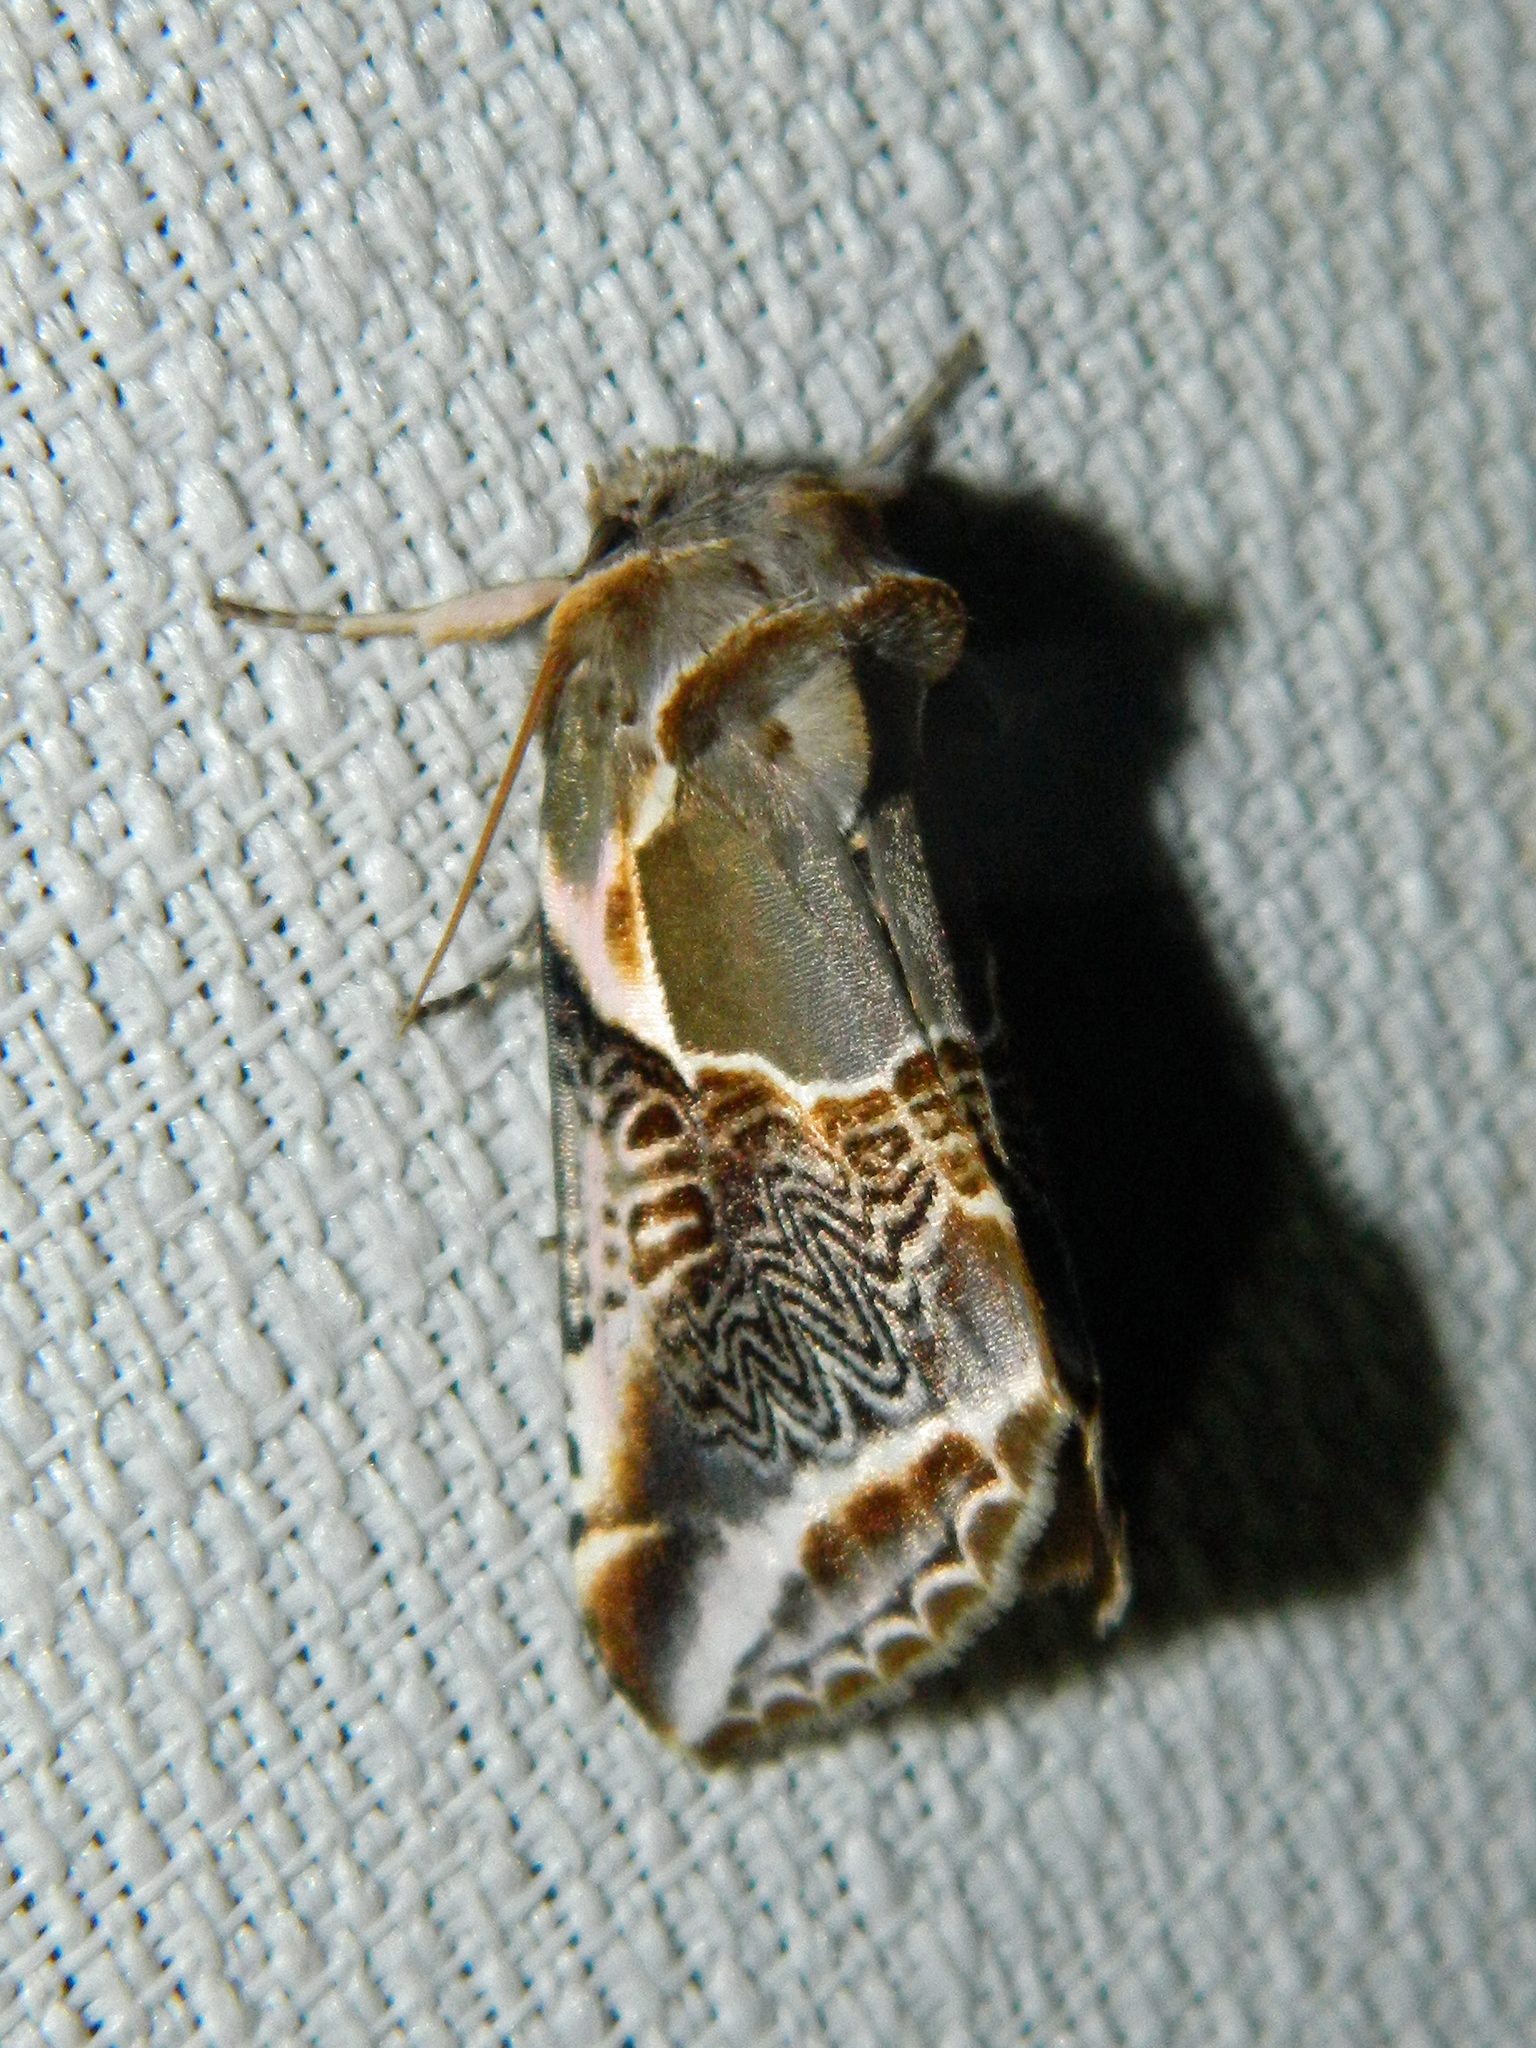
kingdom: Animalia
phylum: Arthropoda
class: Insecta
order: Lepidoptera
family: Drepanidae
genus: Habrosyne
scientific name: Habrosyne scripta
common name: Lettered habrosyne moth
